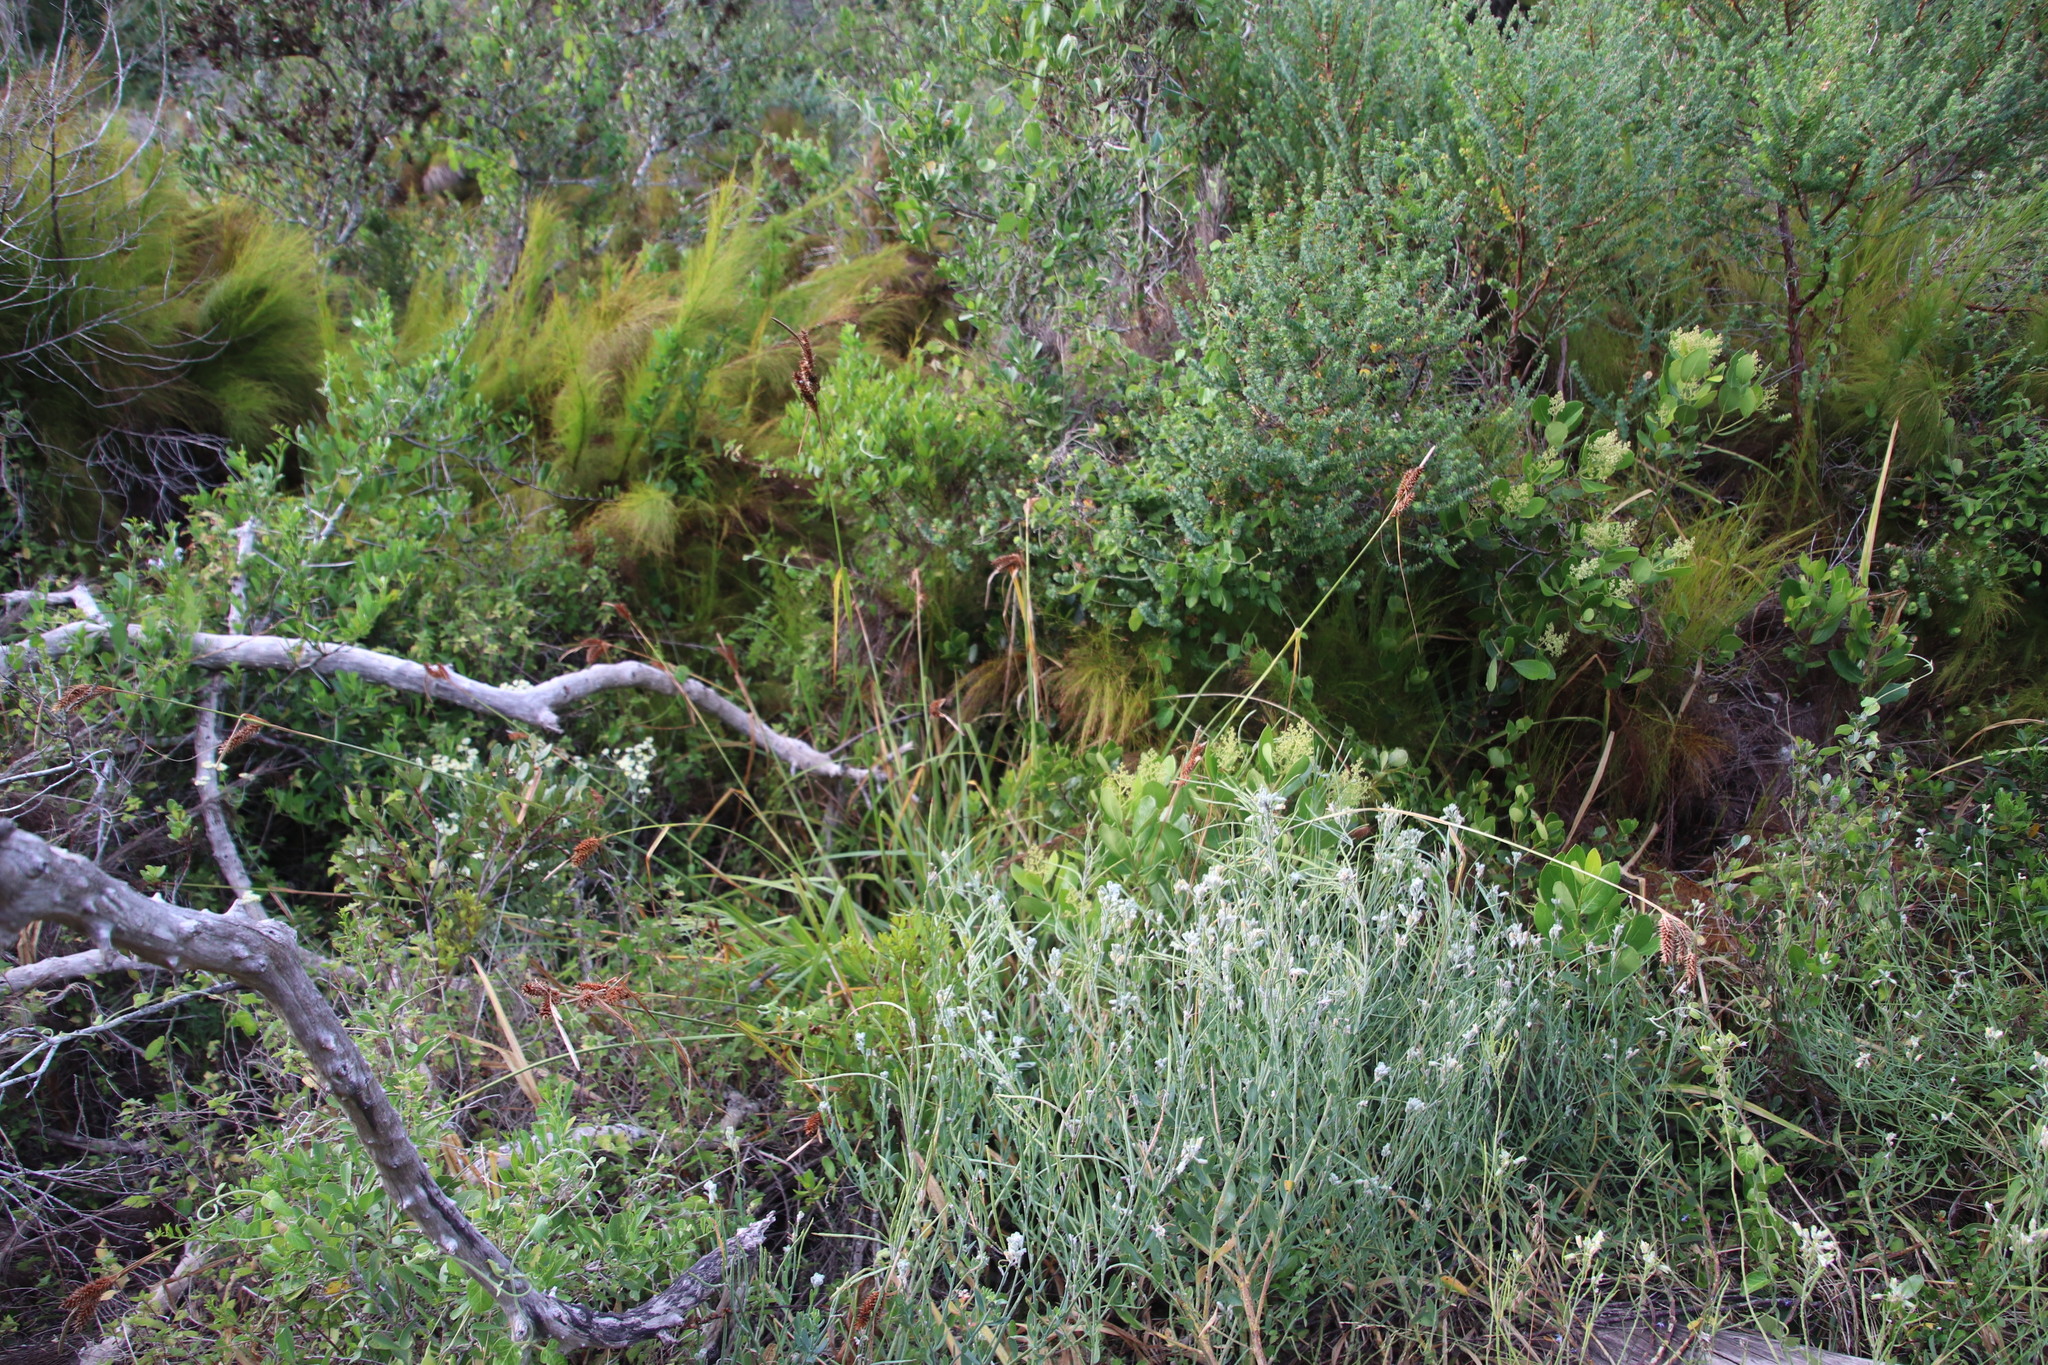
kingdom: Plantae
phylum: Tracheophyta
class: Liliopsida
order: Poales
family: Cyperaceae
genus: Carex
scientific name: Carex clavata
